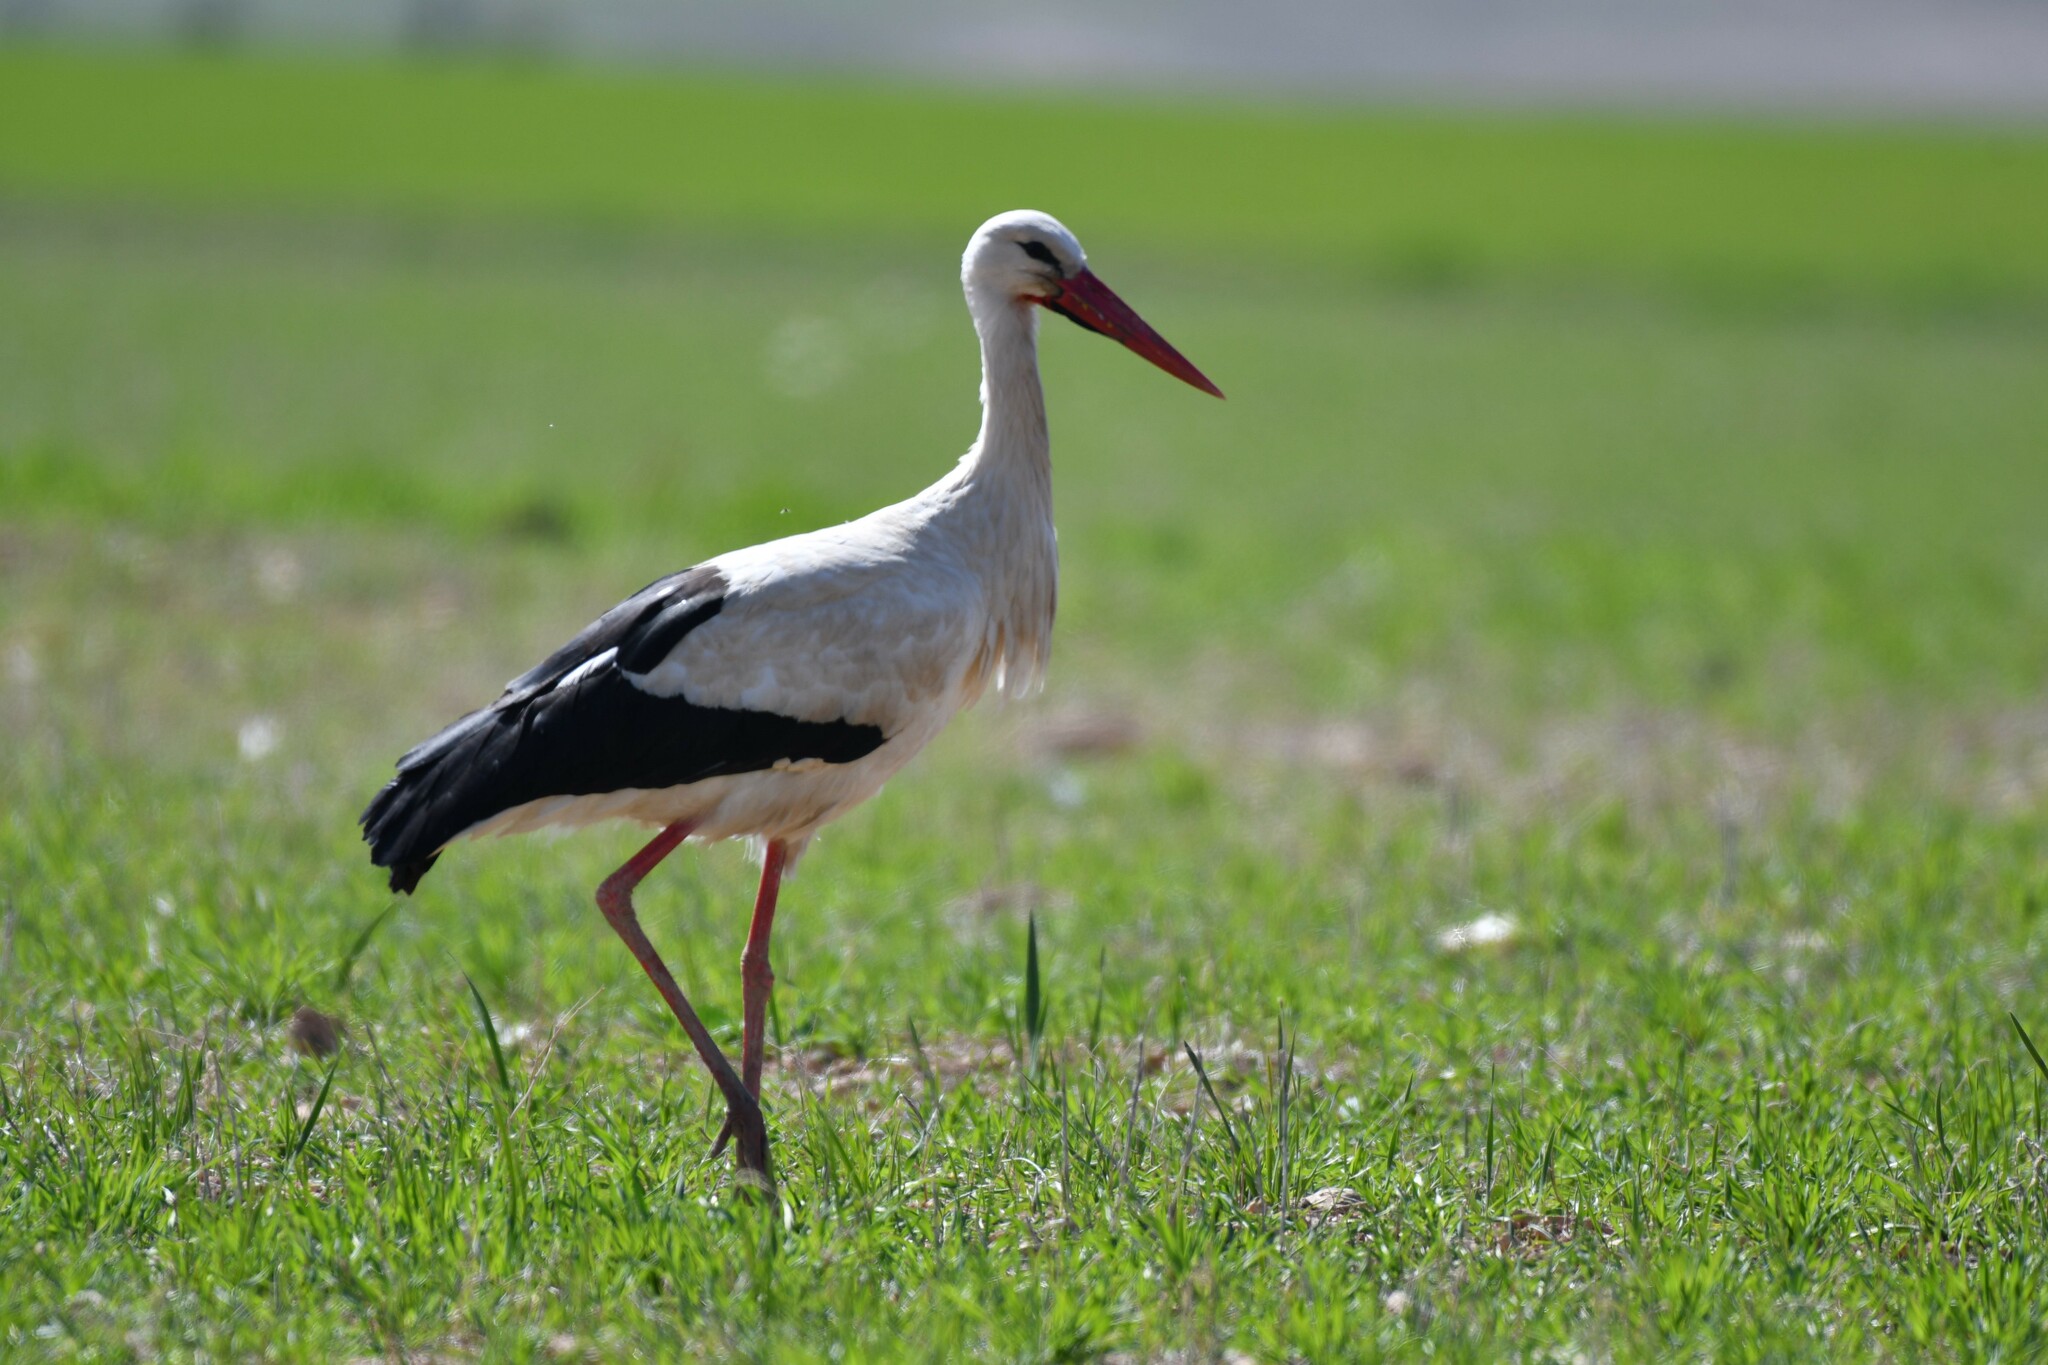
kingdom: Animalia
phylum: Chordata
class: Aves
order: Ciconiiformes
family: Ciconiidae
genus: Ciconia
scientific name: Ciconia ciconia
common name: White stork
